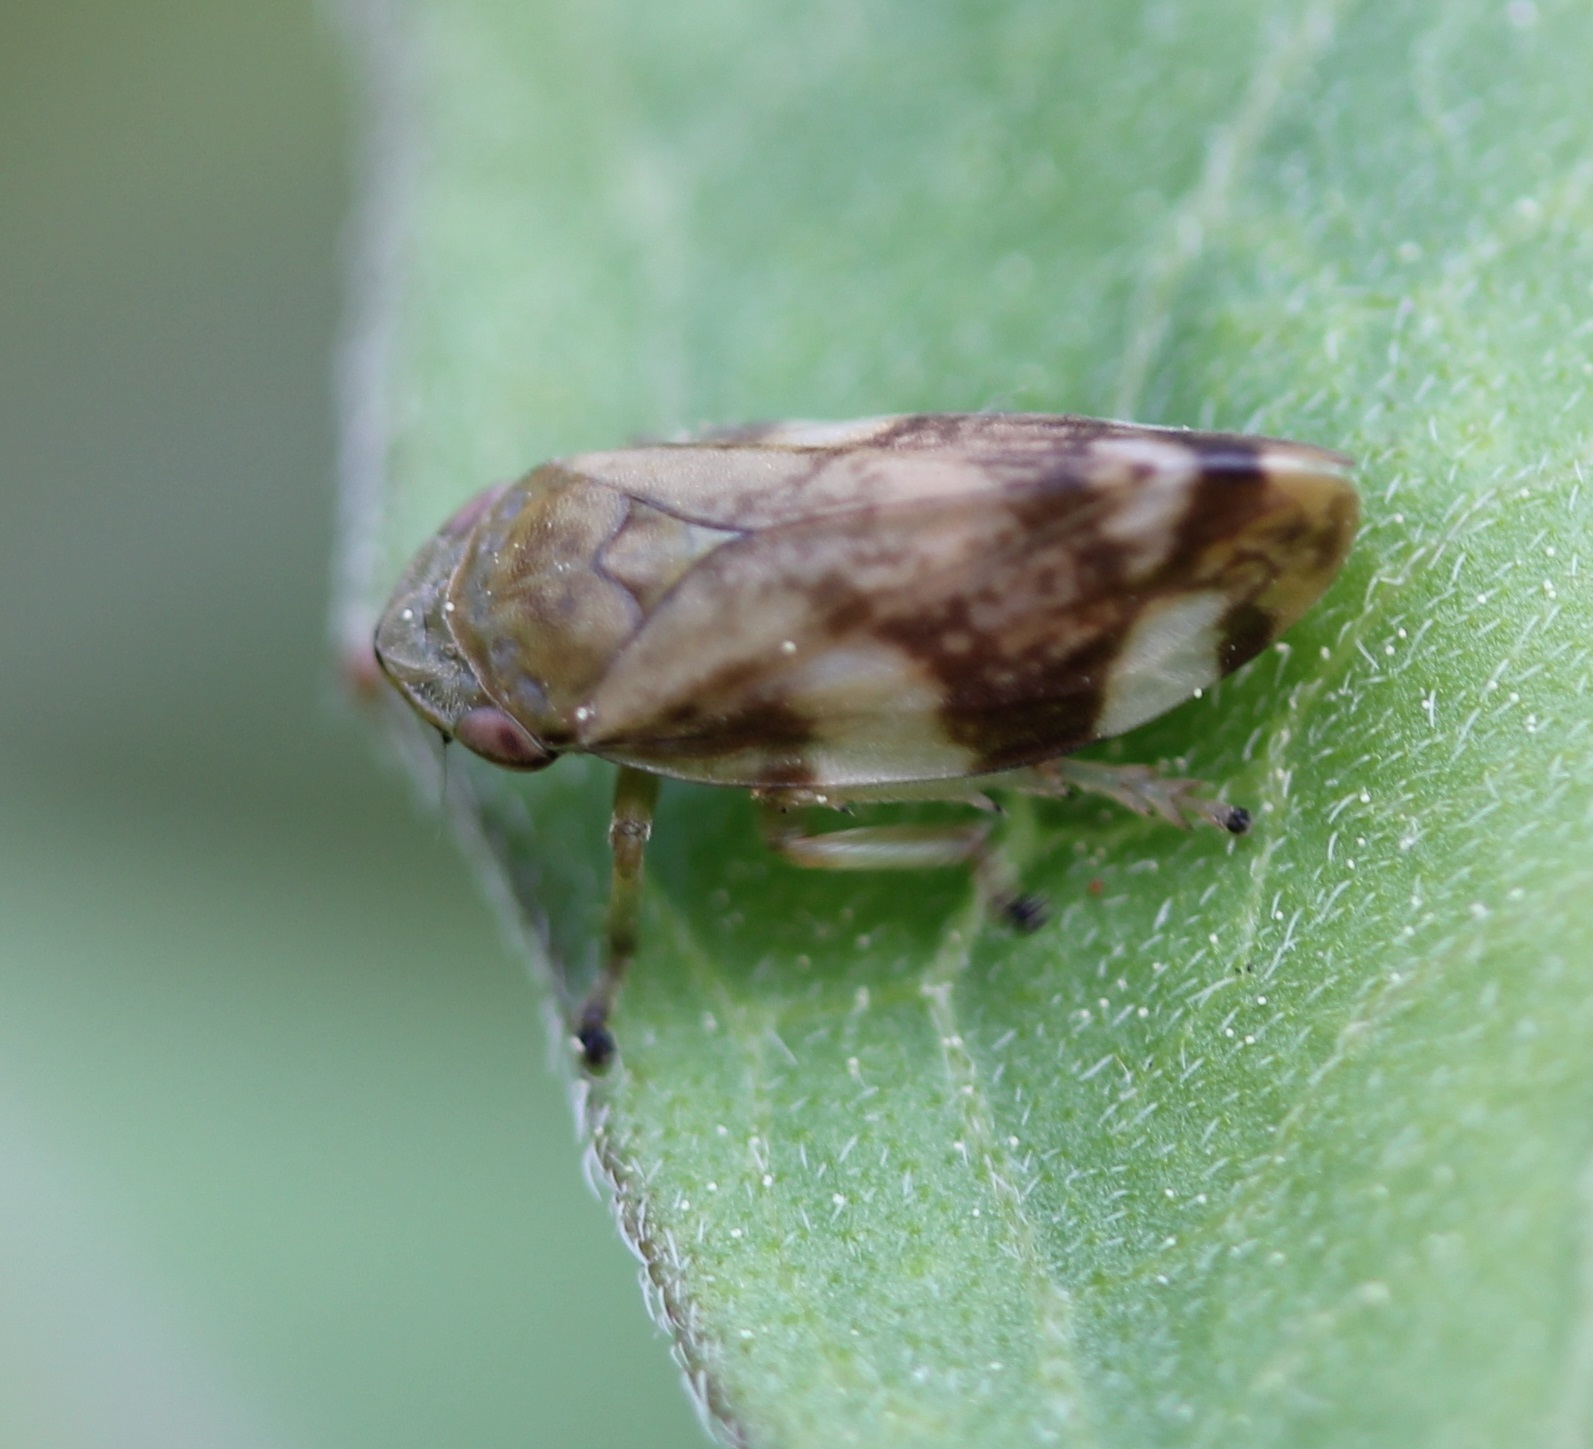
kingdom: Animalia
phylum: Arthropoda
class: Insecta
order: Hemiptera
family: Aphrophoridae
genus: Philaenus
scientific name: Philaenus spumarius
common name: Meadow spittlebug
